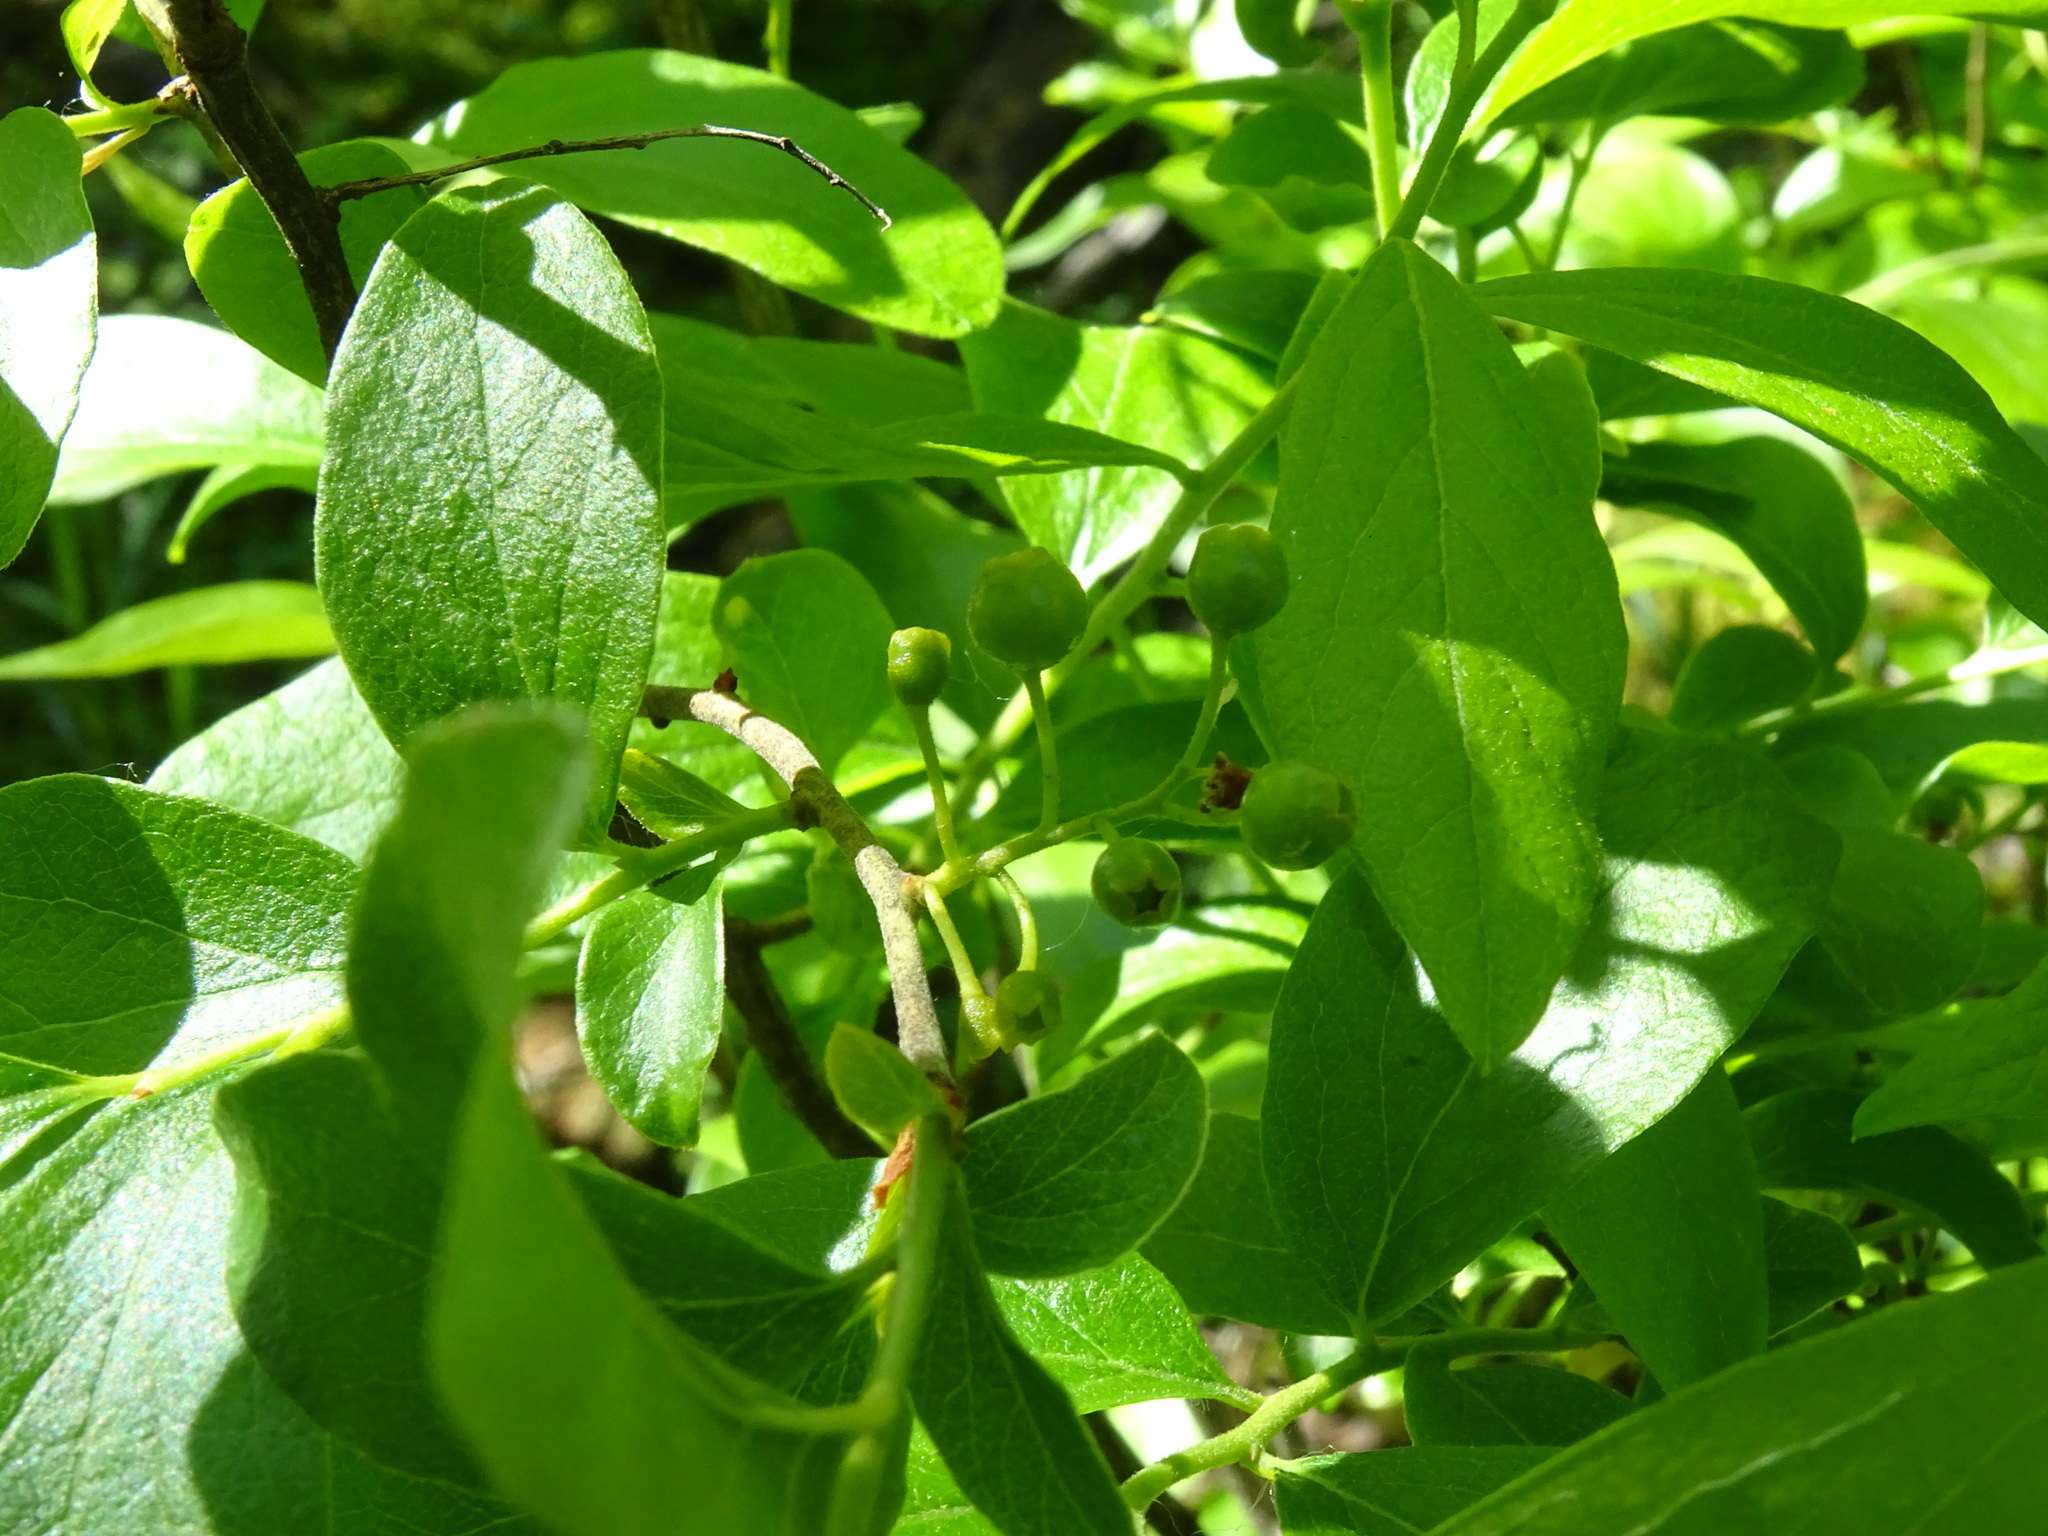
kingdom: Plantae
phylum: Tracheophyta
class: Magnoliopsida
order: Ericales
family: Ericaceae
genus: Gaylussacia
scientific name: Gaylussacia baccata
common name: Black huckleberry
